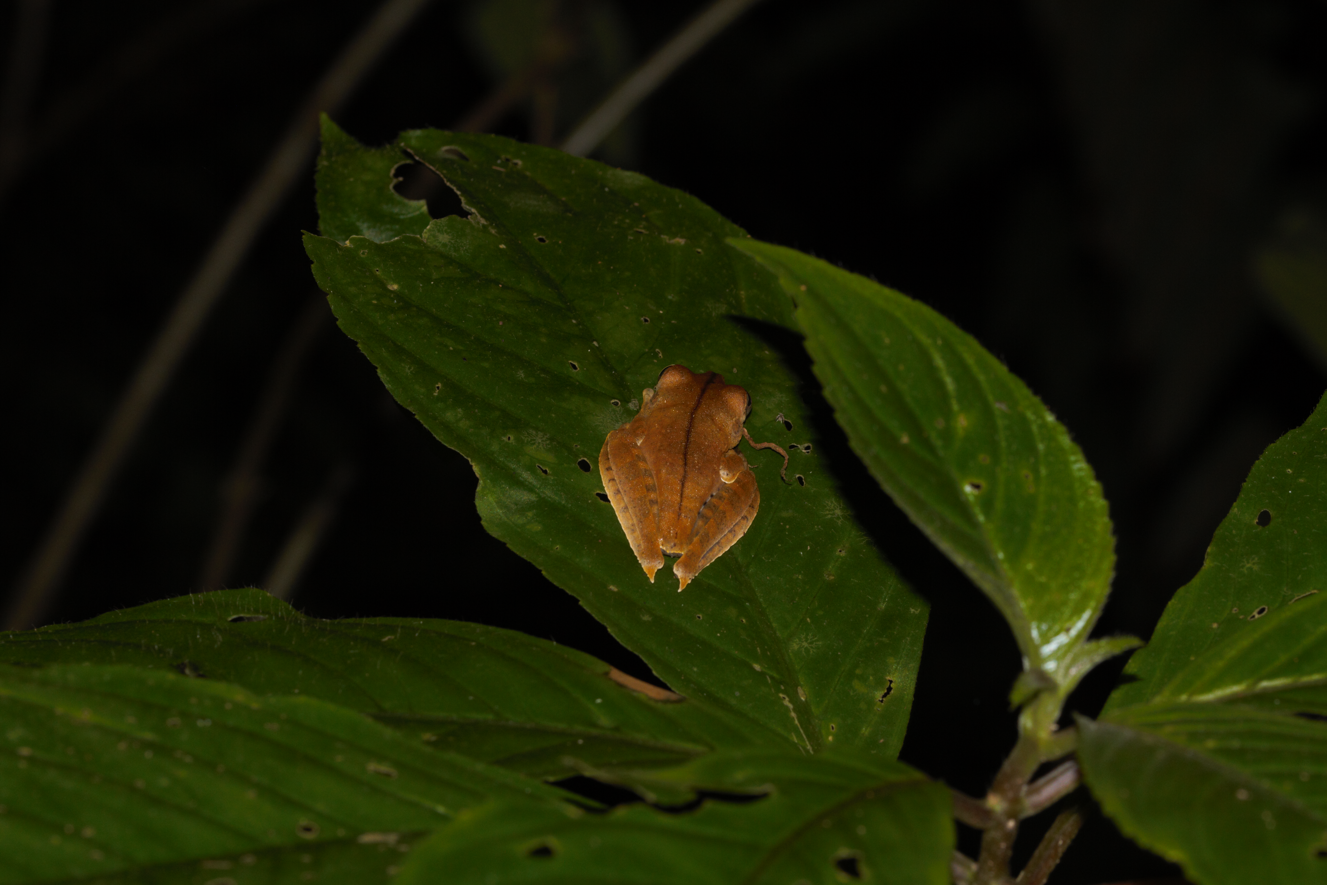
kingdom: Animalia
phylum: Chordata
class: Amphibia
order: Anura
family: Hylidae
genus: Boana
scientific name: Boana calcarata
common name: Blue-flanked treefrog
